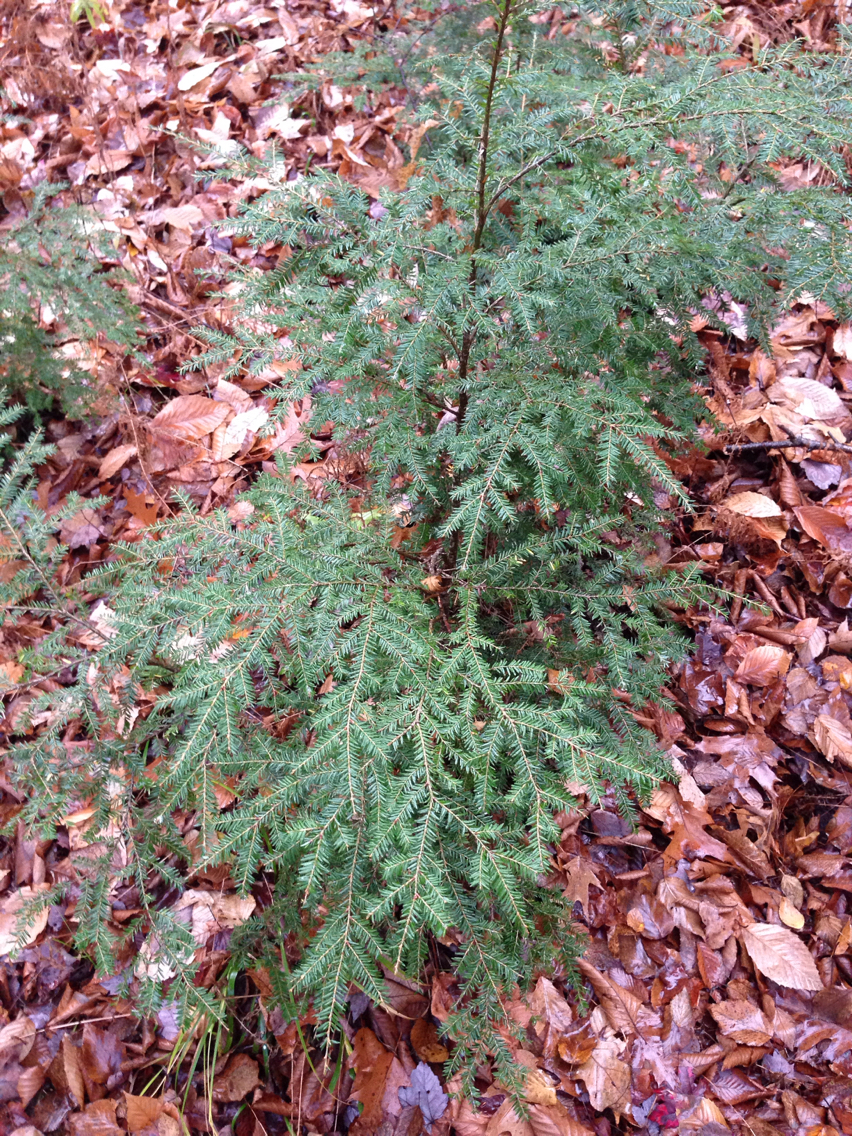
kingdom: Plantae
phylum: Tracheophyta
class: Pinopsida
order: Pinales
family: Pinaceae
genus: Tsuga
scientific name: Tsuga canadensis
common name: Eastern hemlock
